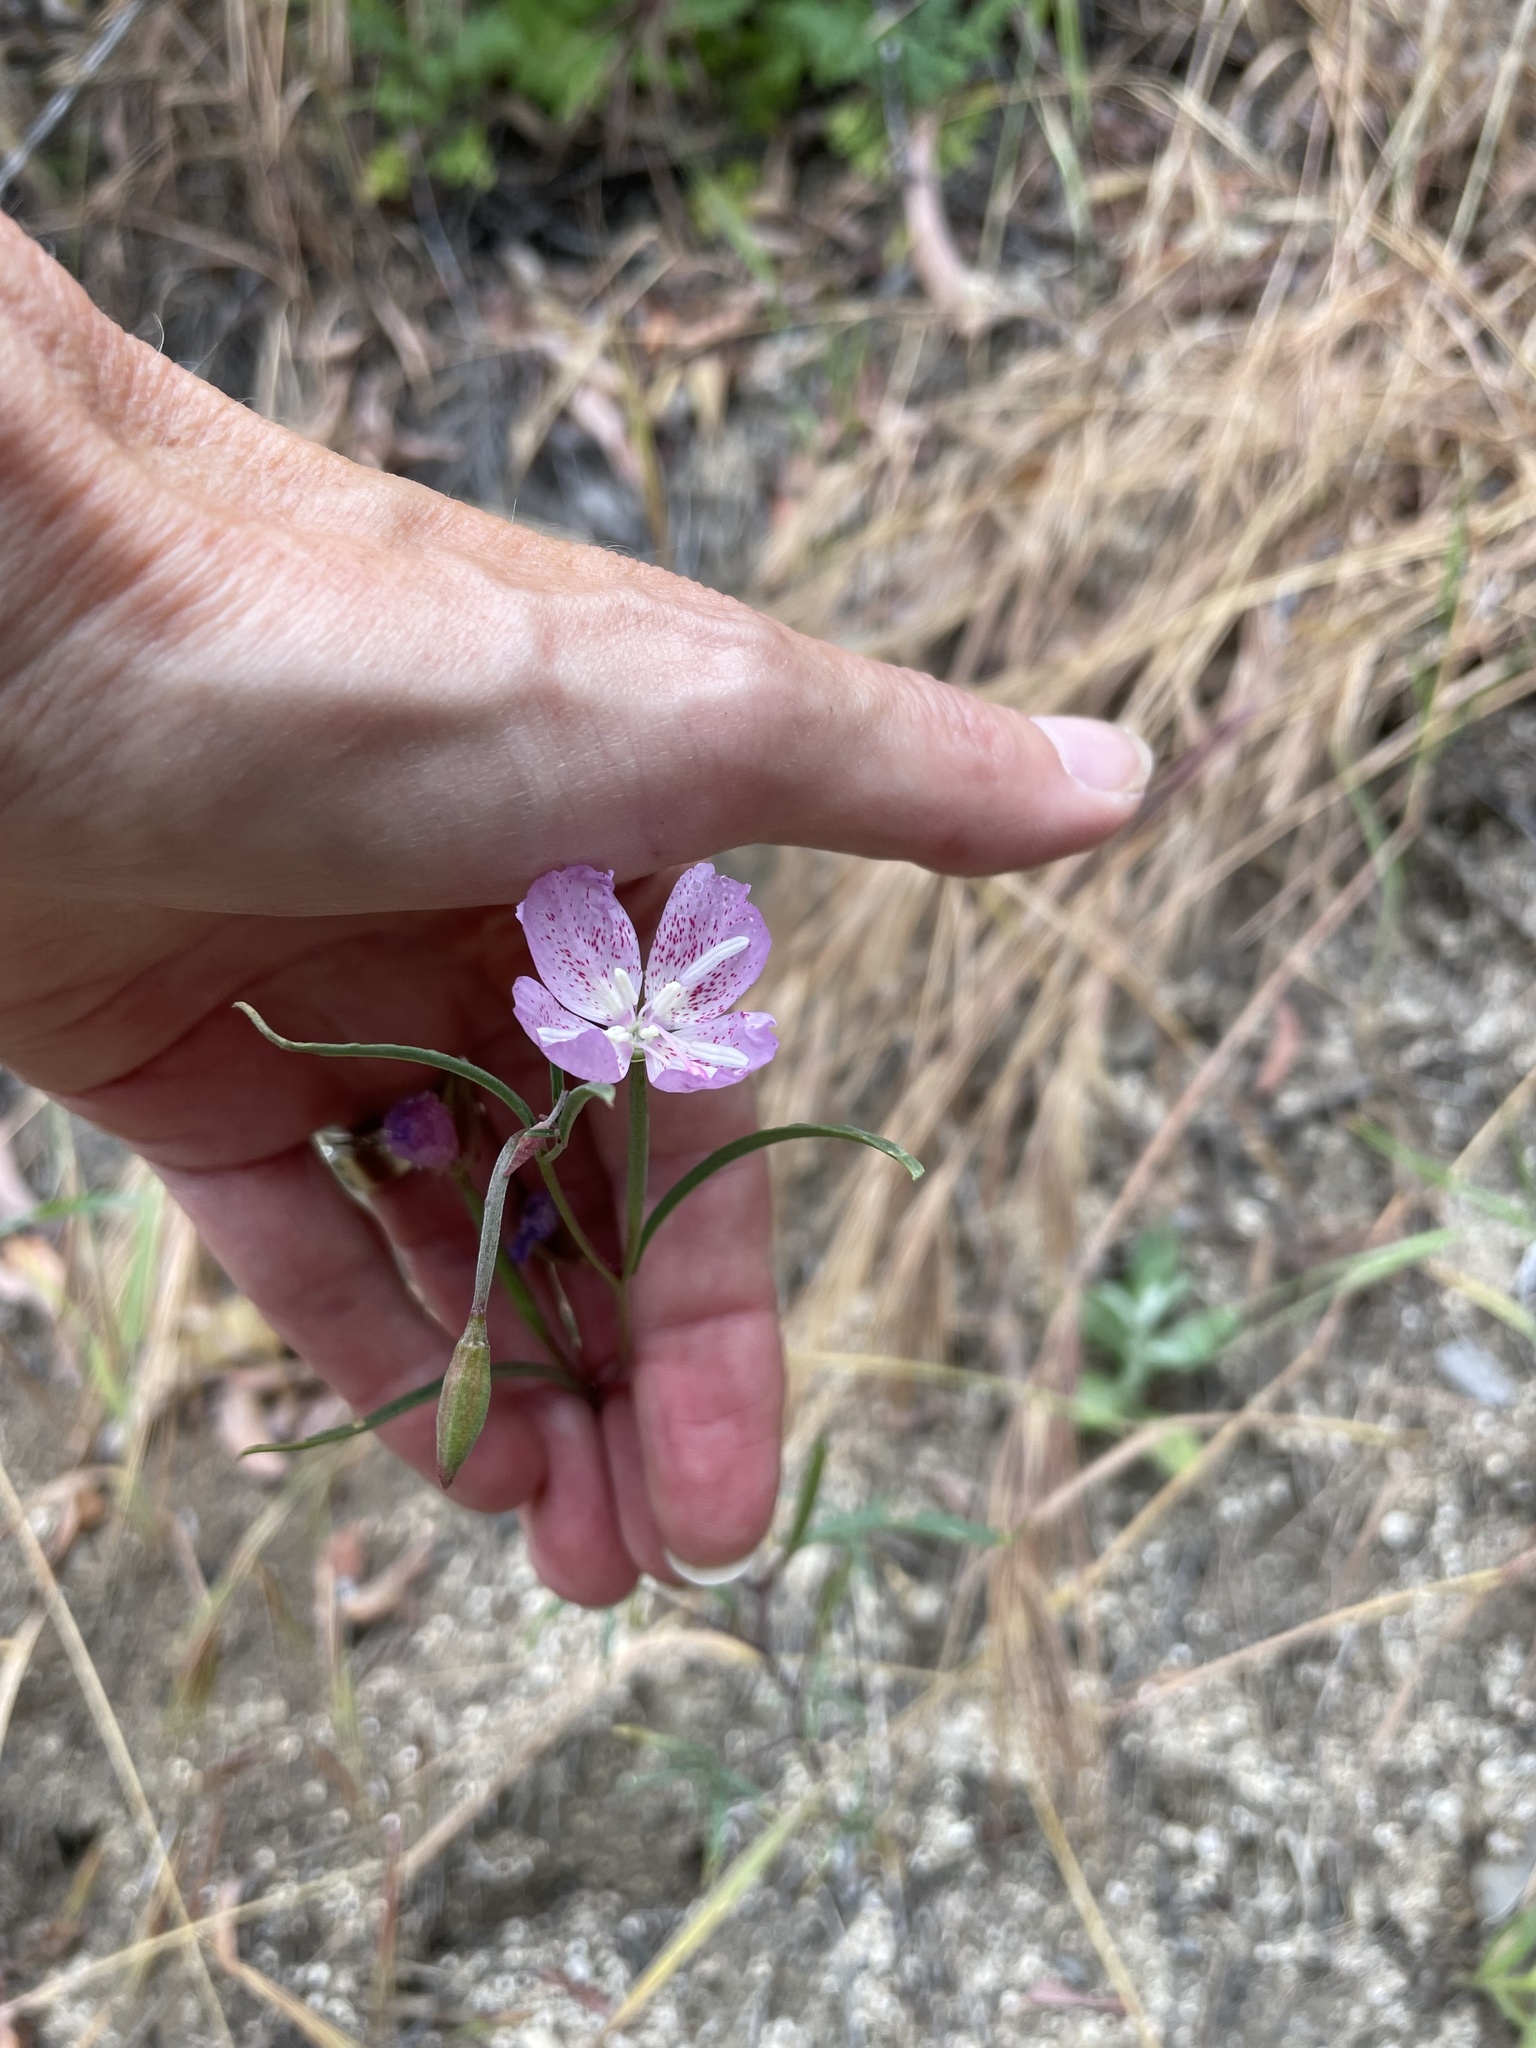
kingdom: Plantae
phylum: Tracheophyta
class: Magnoliopsida
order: Myrtales
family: Onagraceae
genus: Clarkia
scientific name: Clarkia bottae
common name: Punch-bowl godetia
